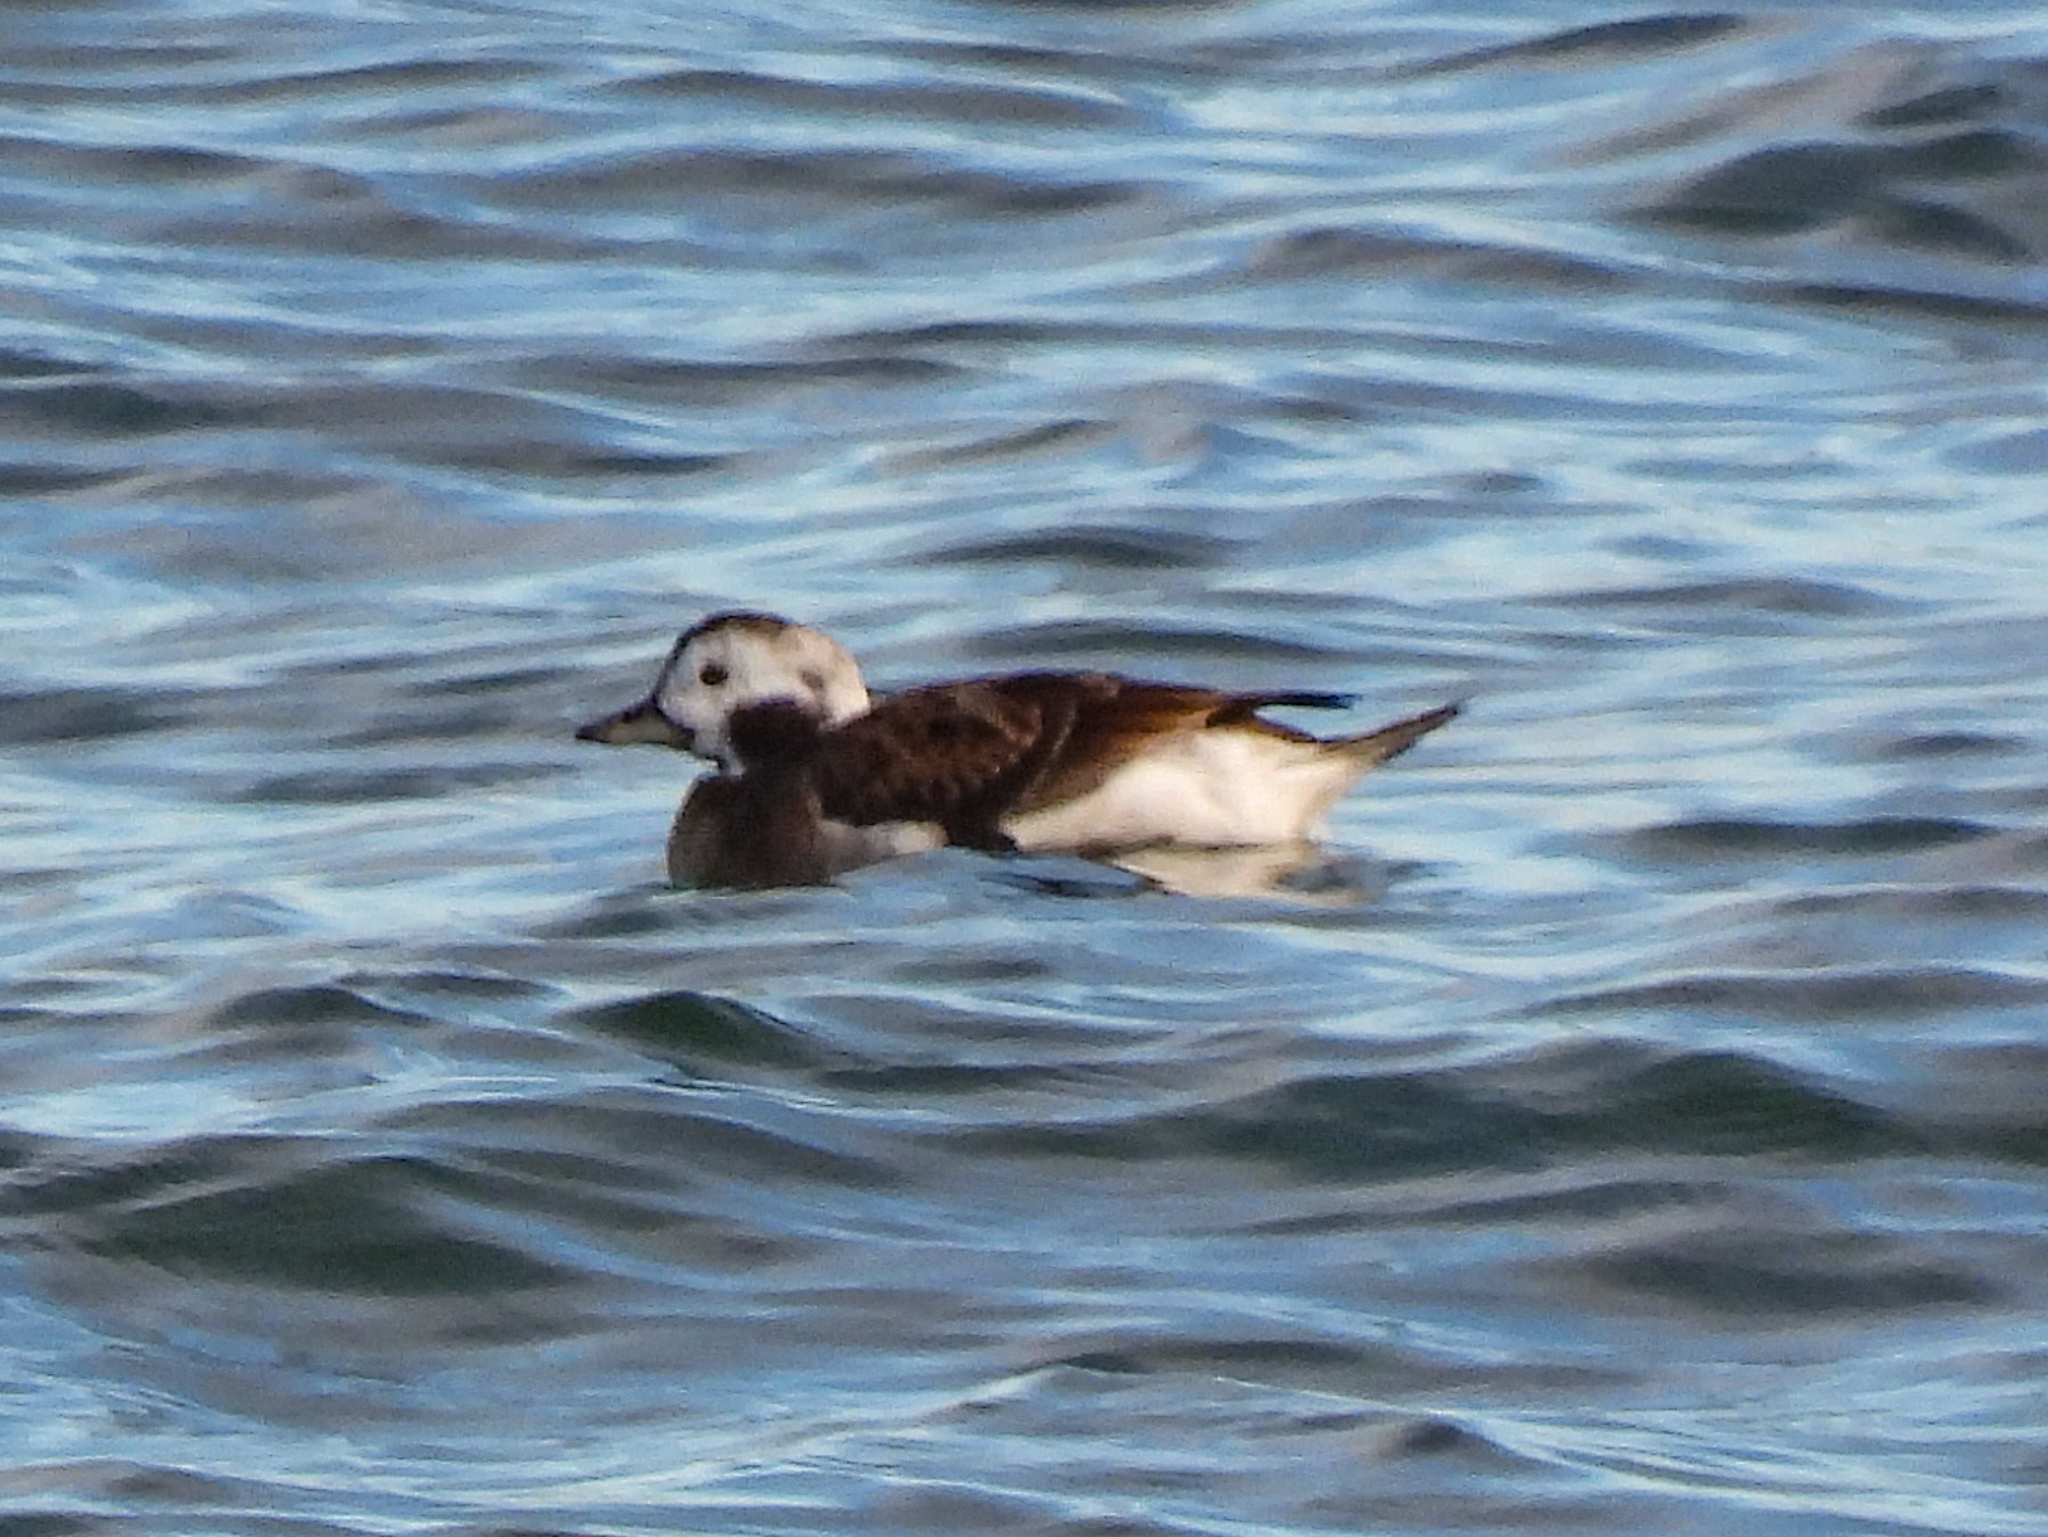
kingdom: Animalia
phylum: Chordata
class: Aves
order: Anseriformes
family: Anatidae
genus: Clangula
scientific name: Clangula hyemalis
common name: Long-tailed duck
